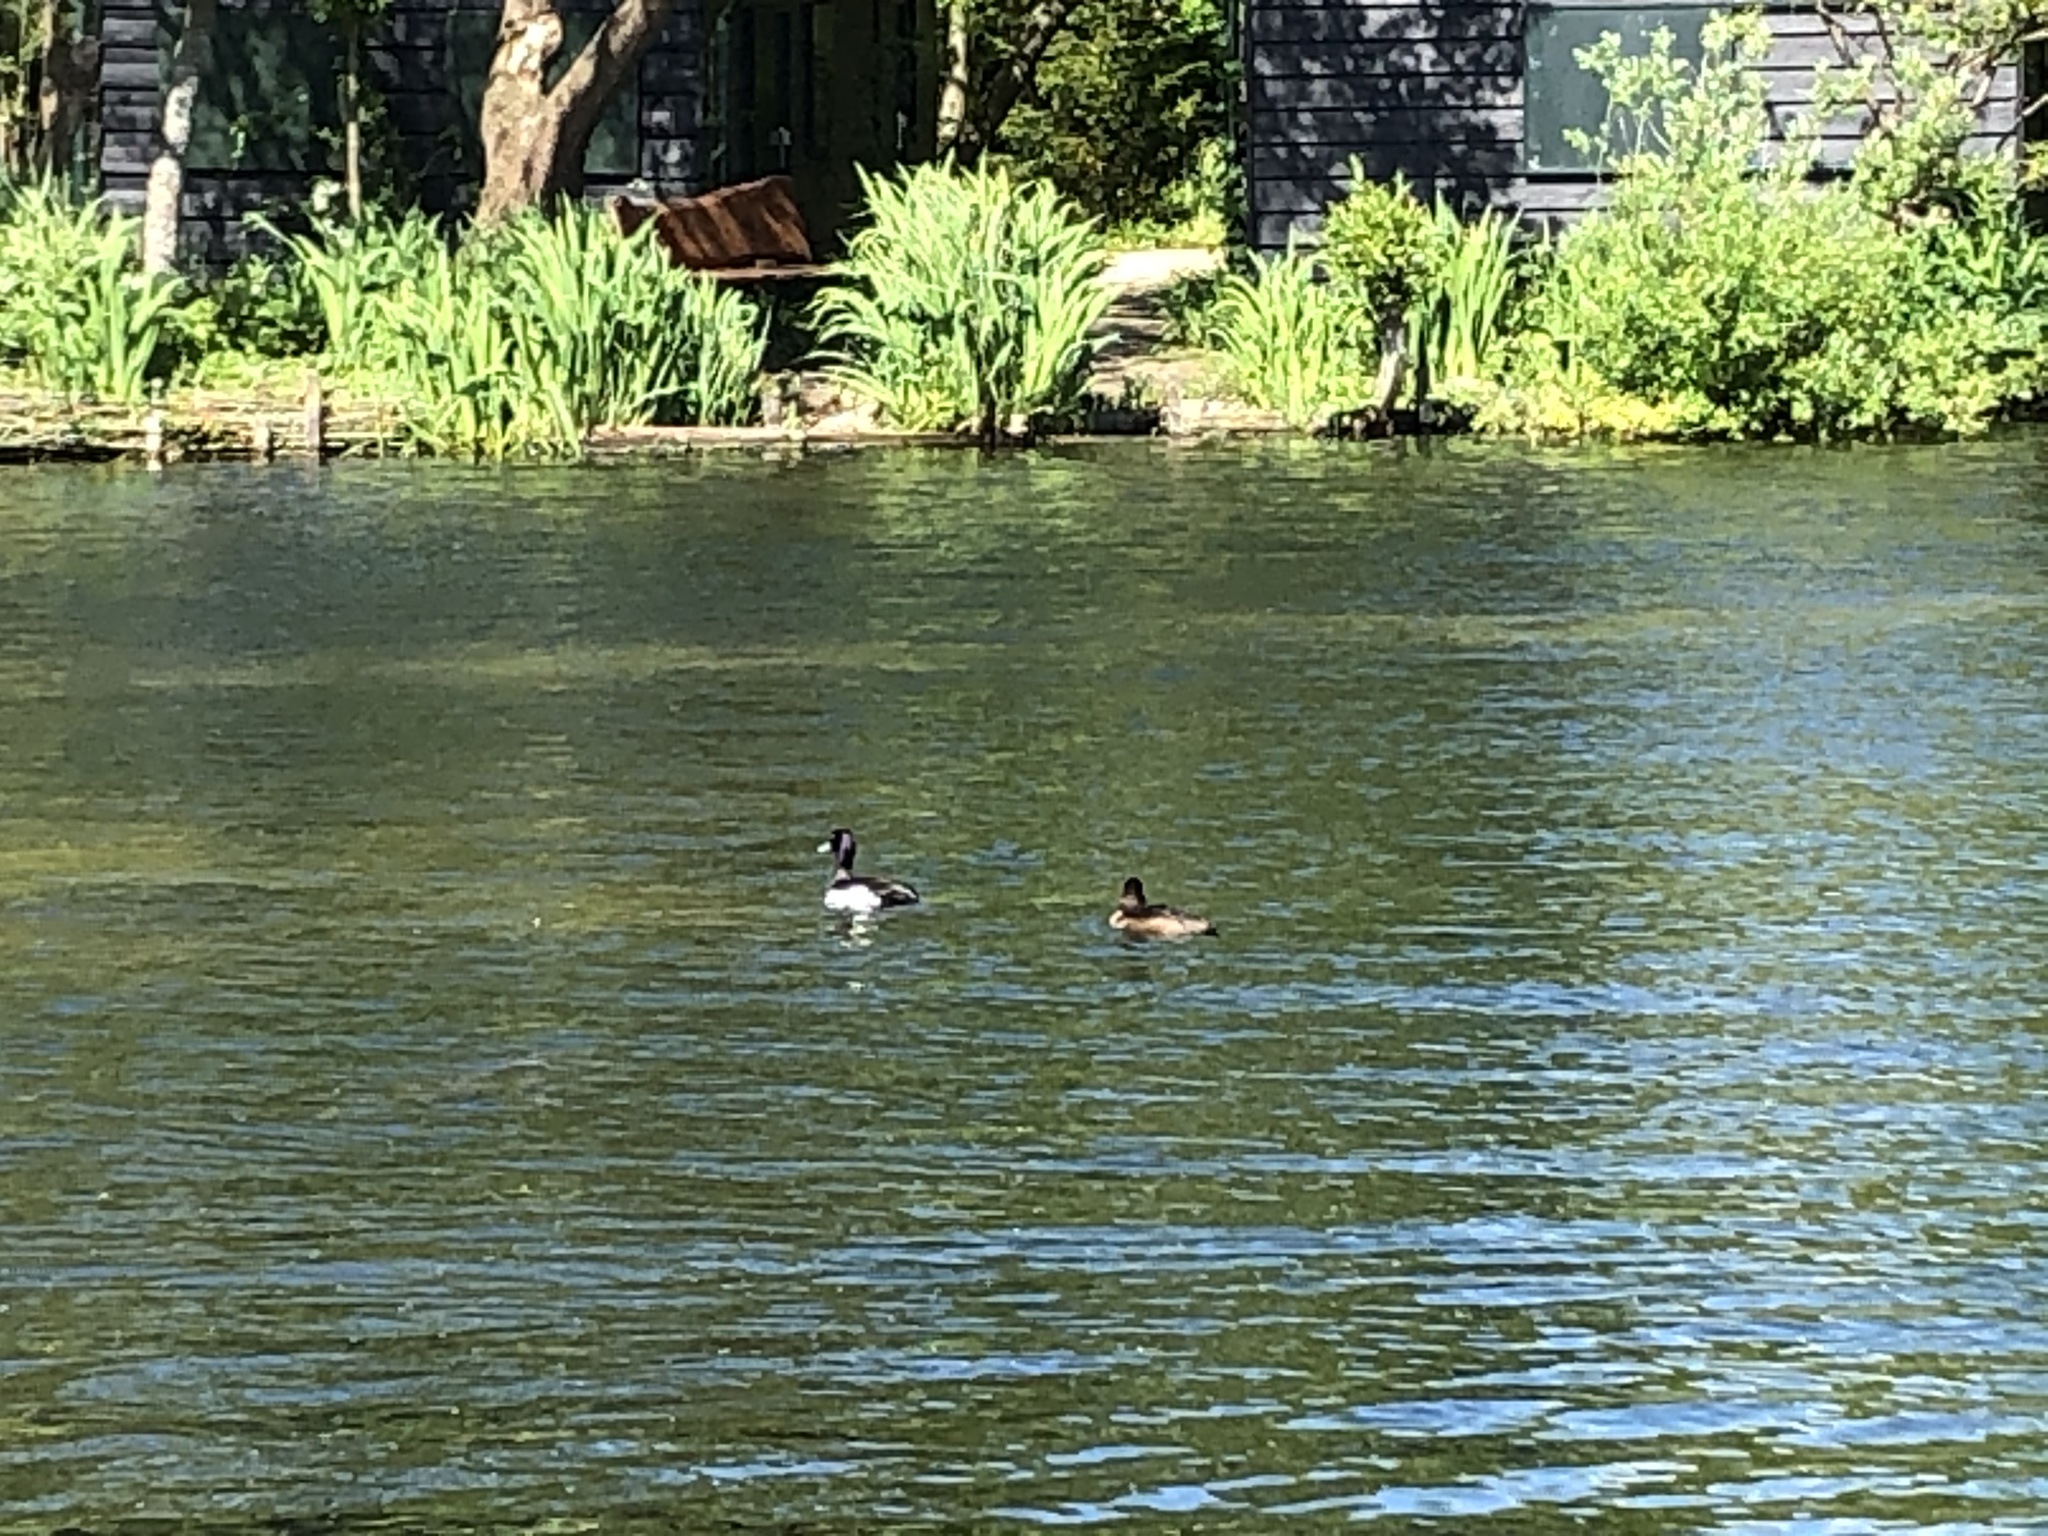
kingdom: Animalia
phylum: Chordata
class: Aves
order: Anseriformes
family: Anatidae
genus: Aythya
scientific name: Aythya fuligula
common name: Tufted duck
